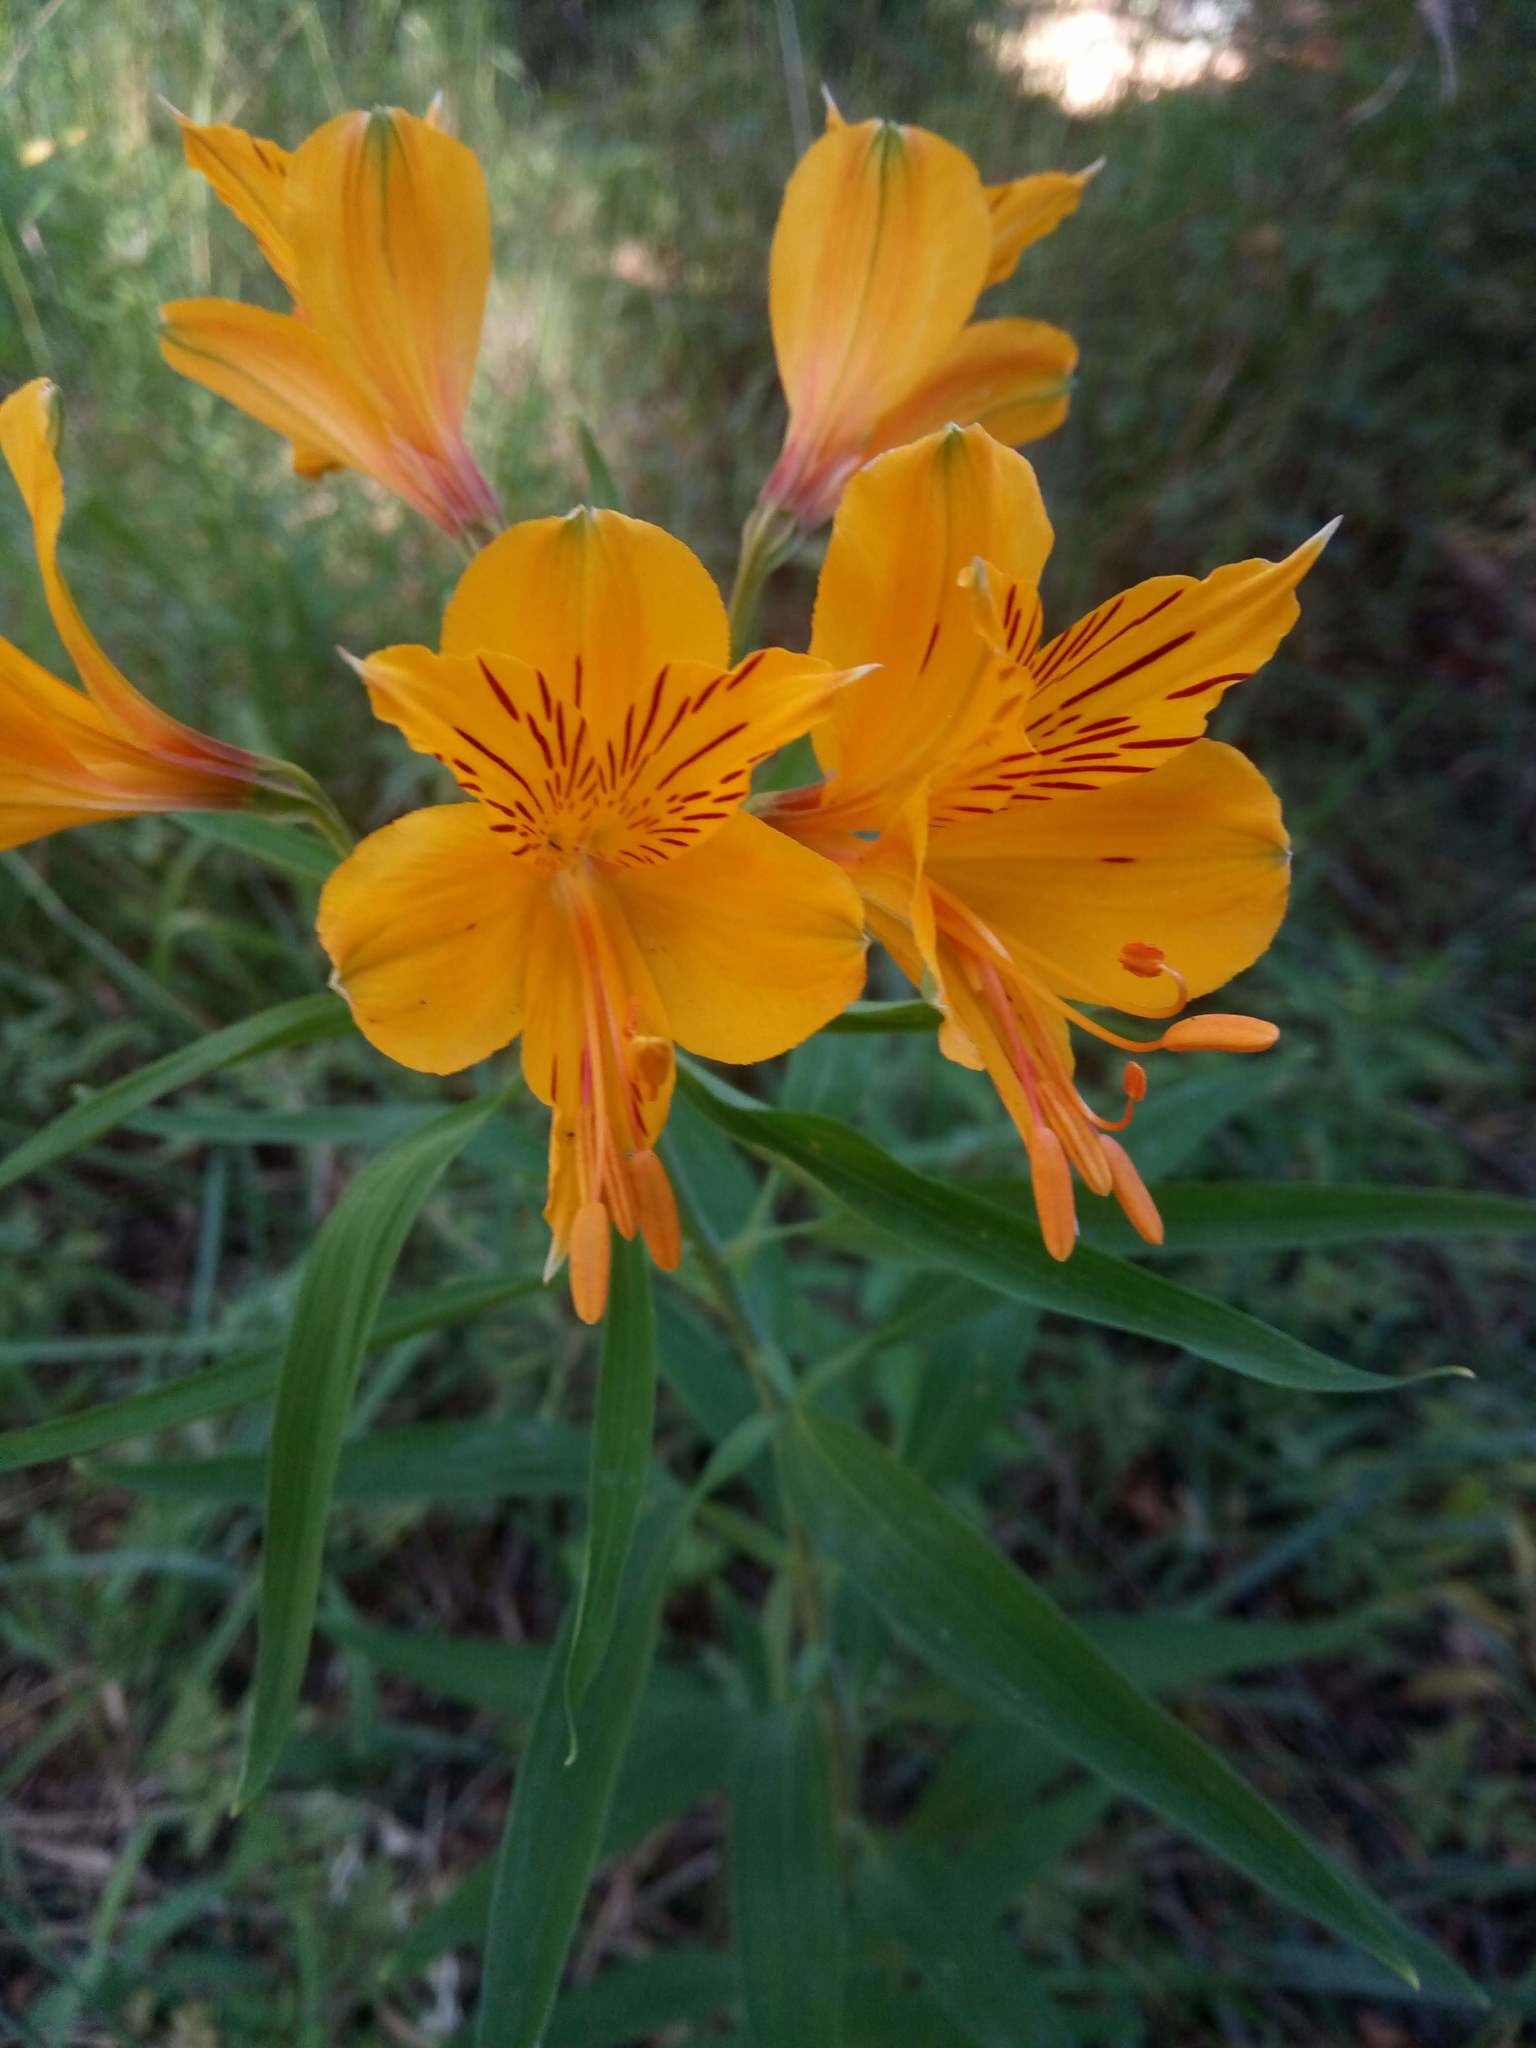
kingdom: Plantae
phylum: Tracheophyta
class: Liliopsida
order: Liliales
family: Alstroemeriaceae
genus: Alstroemeria
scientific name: Alstroemeria aurea
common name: Peruvian lily
